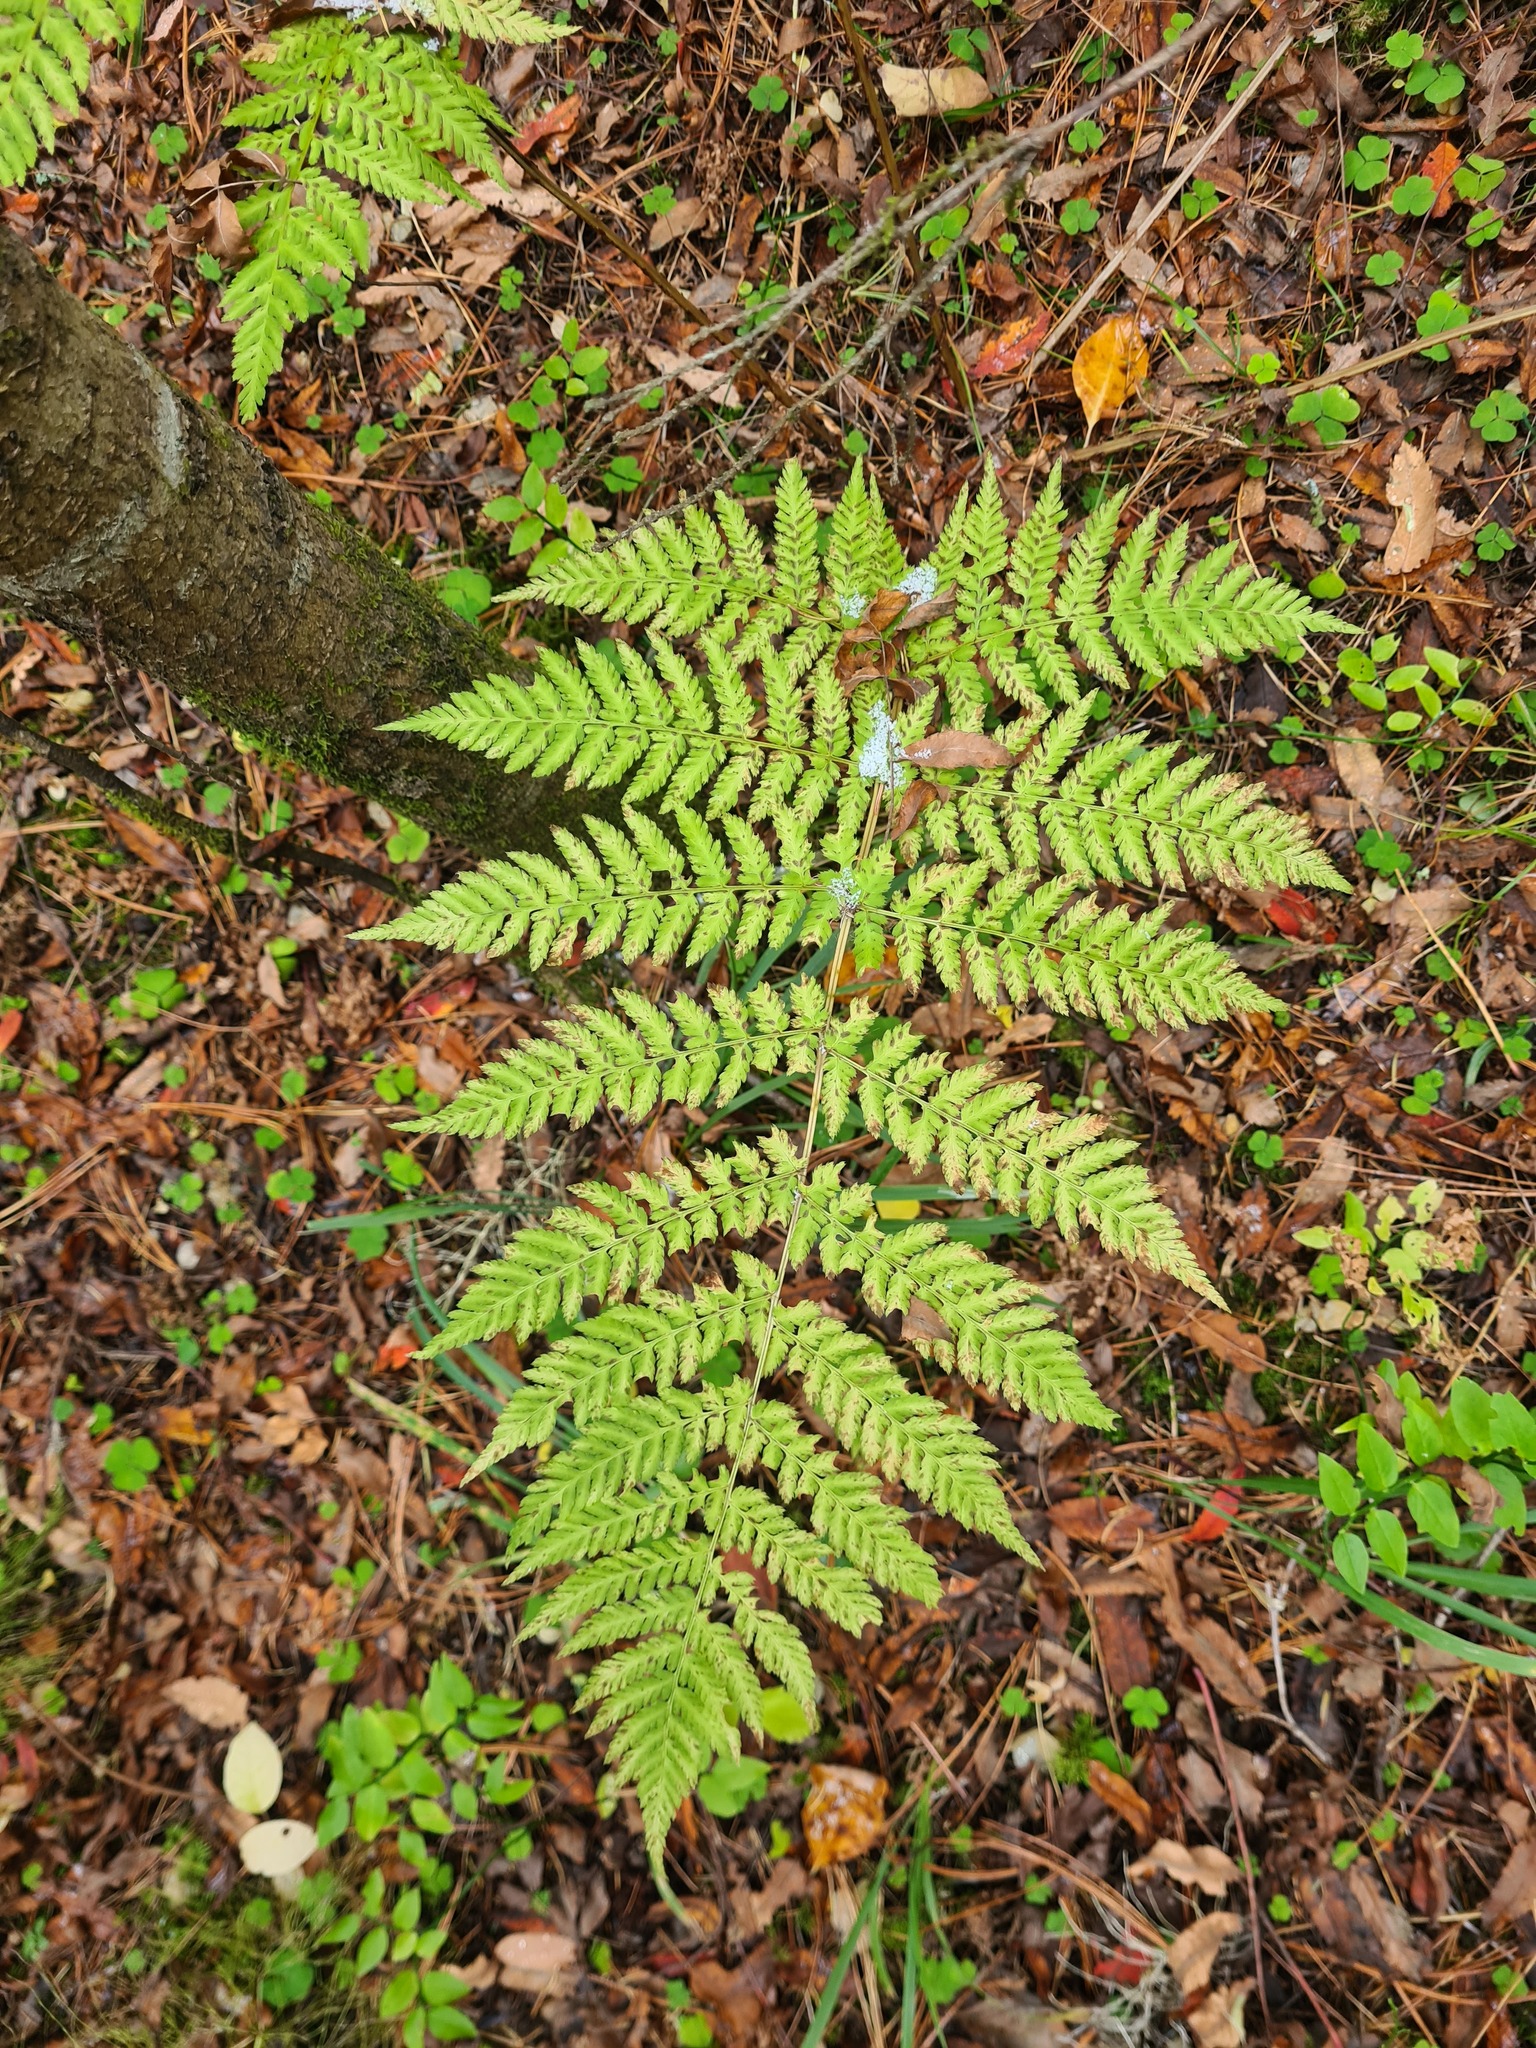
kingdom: Plantae
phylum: Tracheophyta
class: Polypodiopsida
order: Polypodiales
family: Dryopteridaceae
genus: Dryopteris
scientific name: Dryopteris expansa
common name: Northern buckler fern
